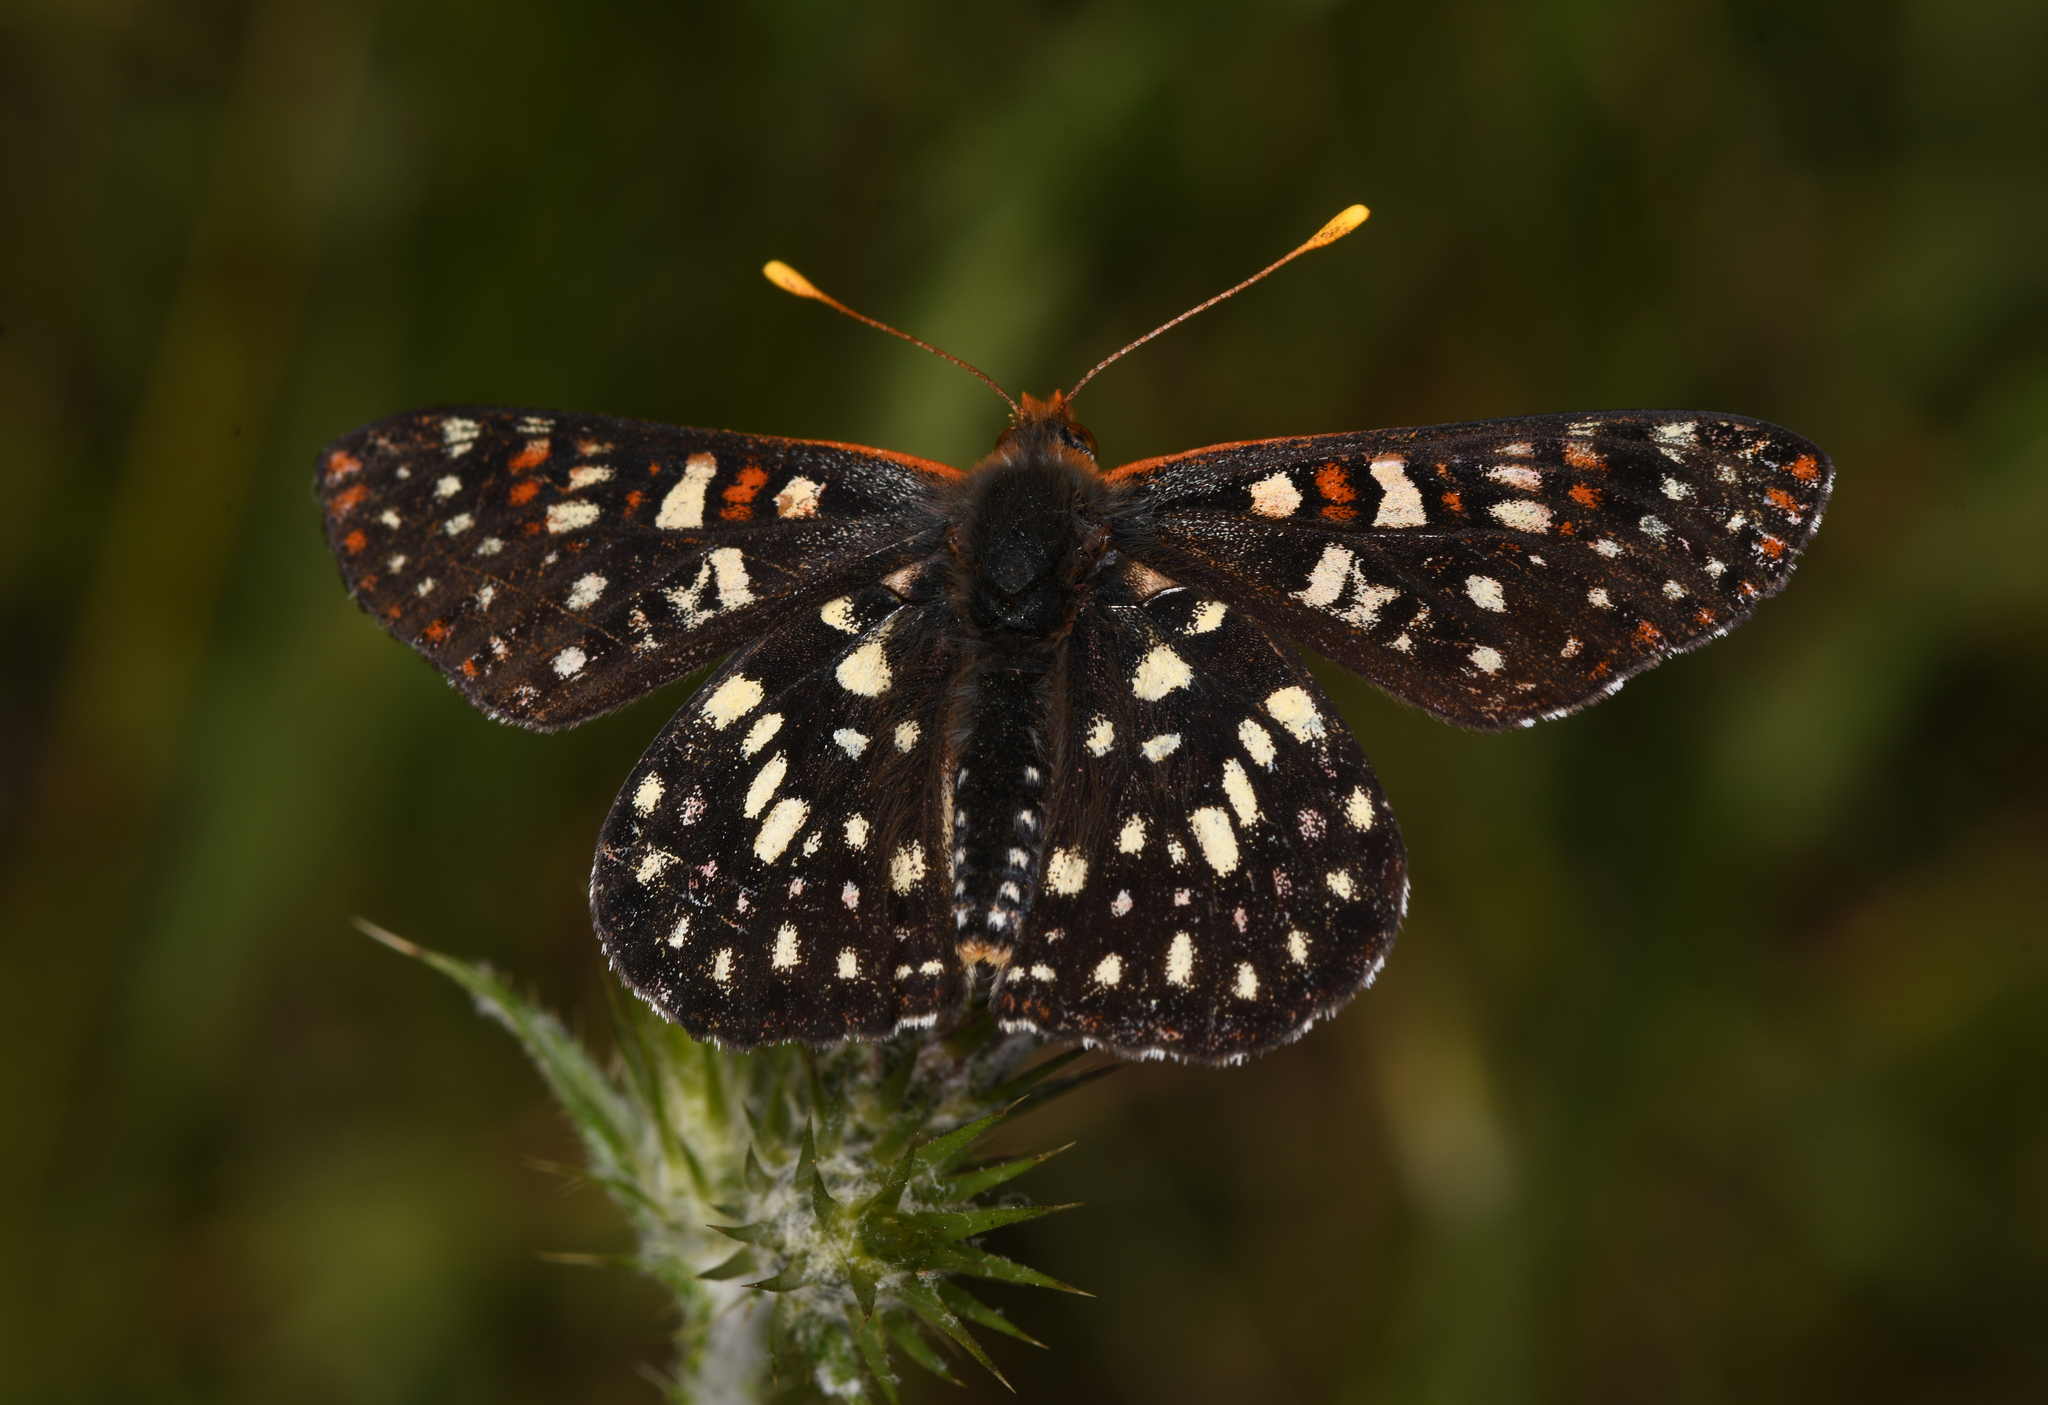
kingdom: Animalia
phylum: Arthropoda
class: Insecta
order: Lepidoptera
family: Nymphalidae
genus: Occidryas
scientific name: Occidryas chalcedona
